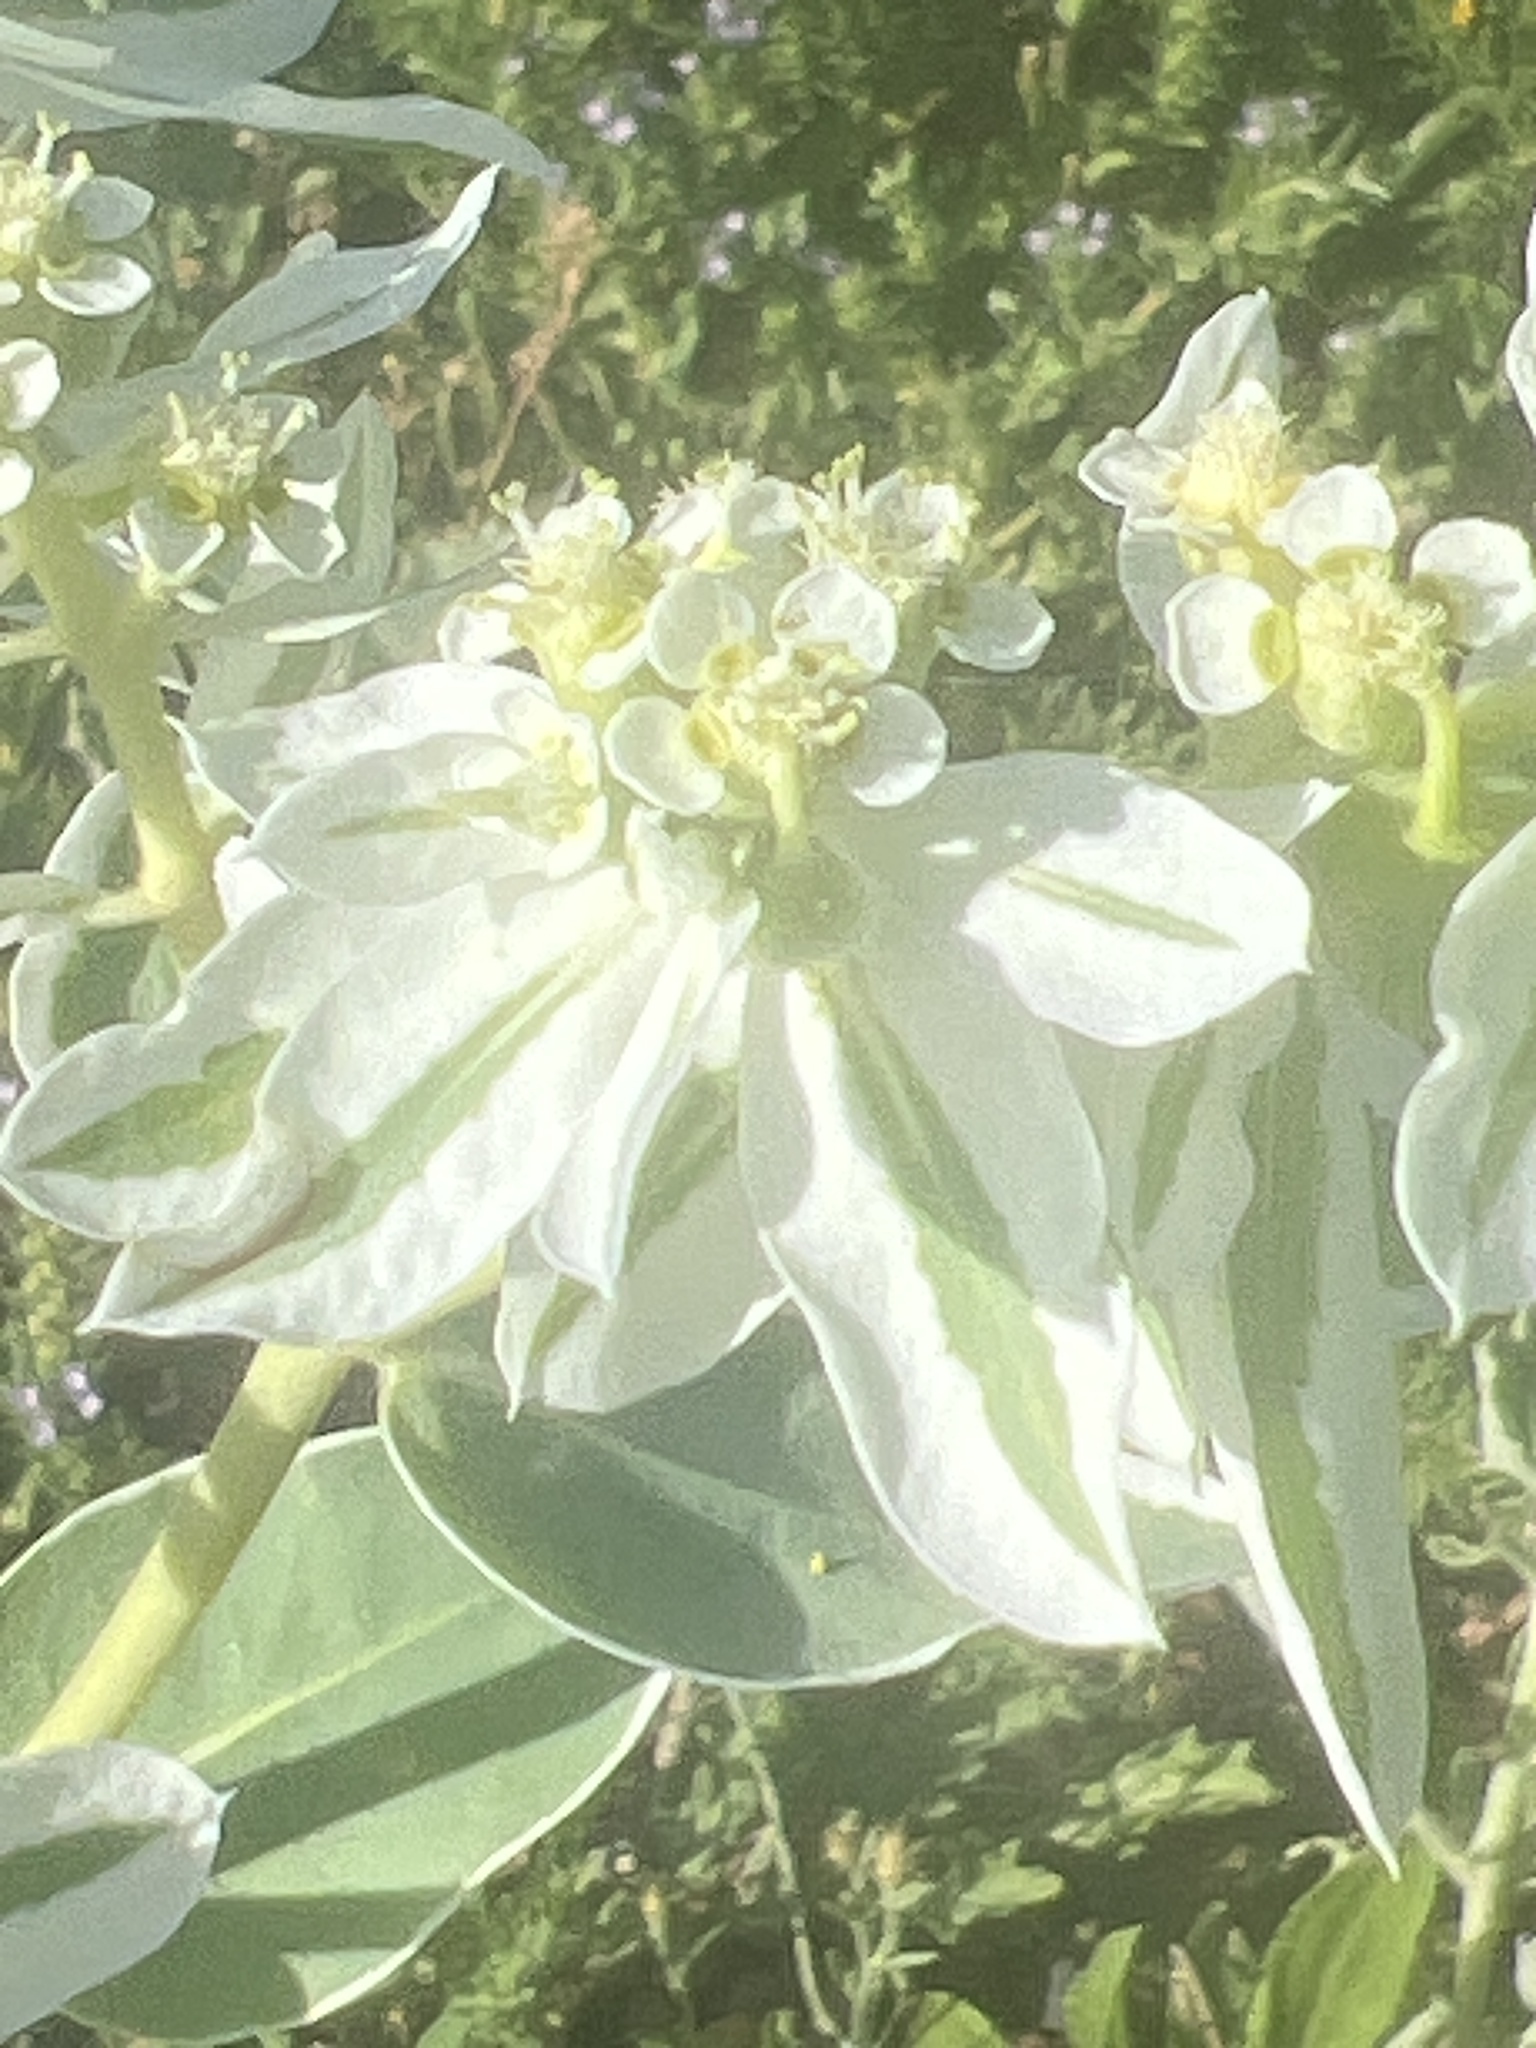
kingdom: Plantae
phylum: Tracheophyta
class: Magnoliopsida
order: Malpighiales
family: Euphorbiaceae
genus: Euphorbia
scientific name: Euphorbia marginata
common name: Ghostweed
